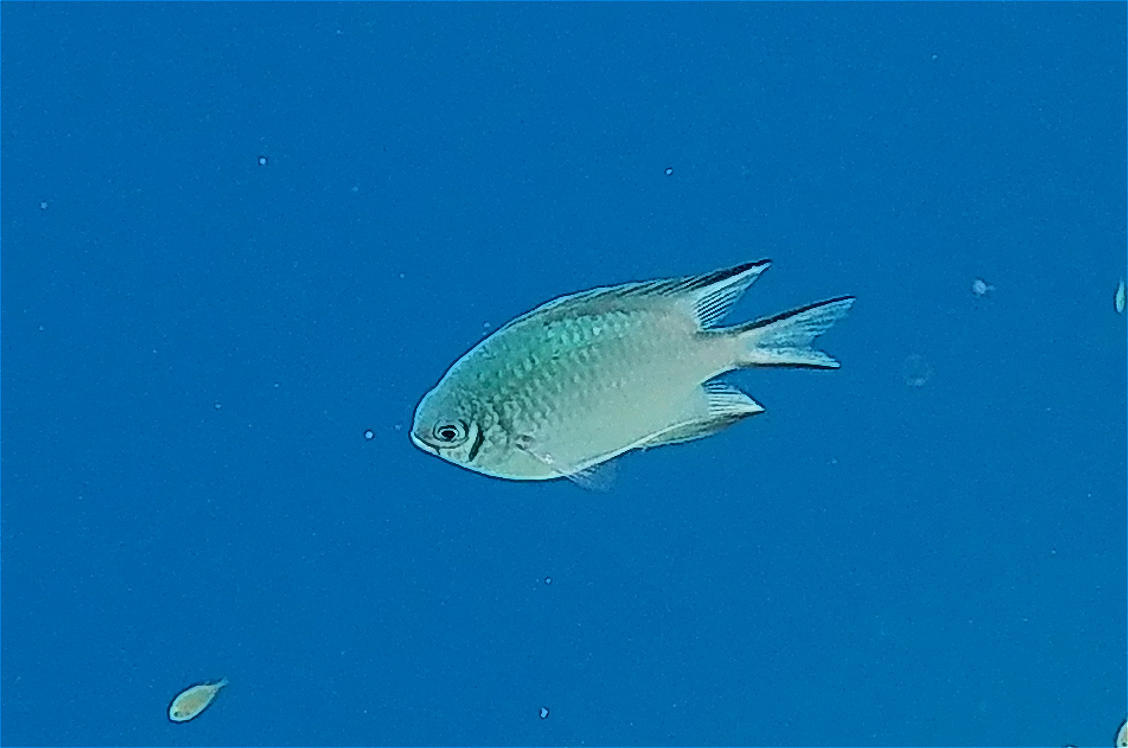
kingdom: Animalia
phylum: Chordata
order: Perciformes
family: Pomacentridae
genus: Amblyglyphidodon
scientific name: Amblyglyphidodon indicus
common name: Maldives damselfish
